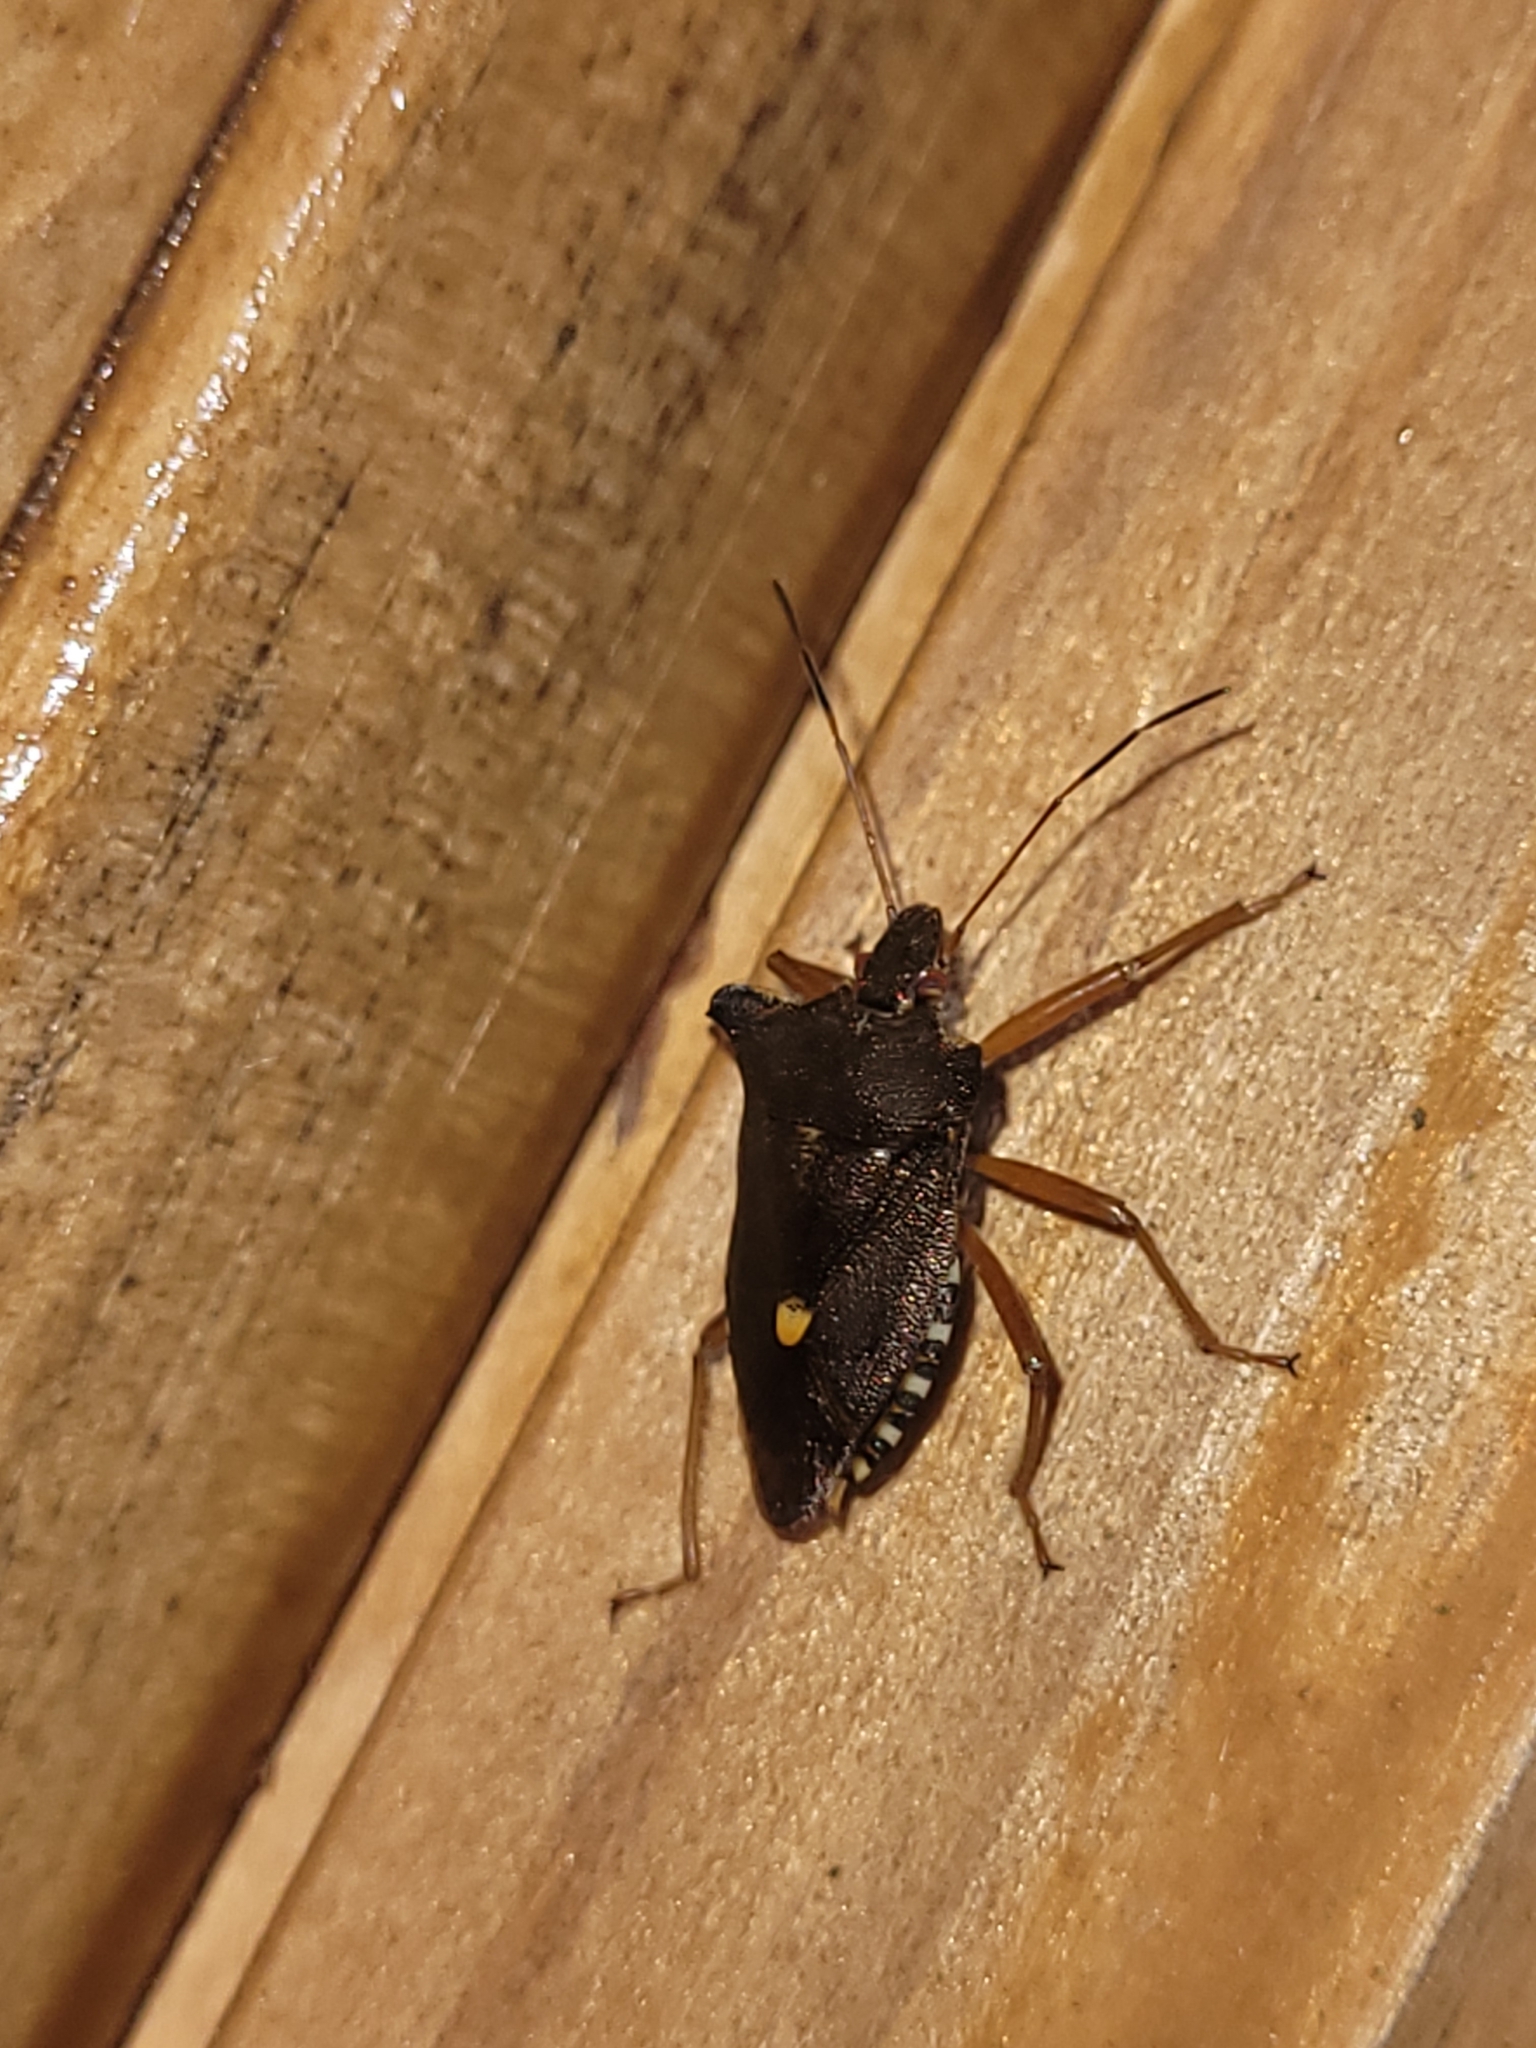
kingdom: Animalia
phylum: Arthropoda
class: Insecta
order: Hemiptera
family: Pentatomidae
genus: Pentatoma
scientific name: Pentatoma rufipes
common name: Forest bug
